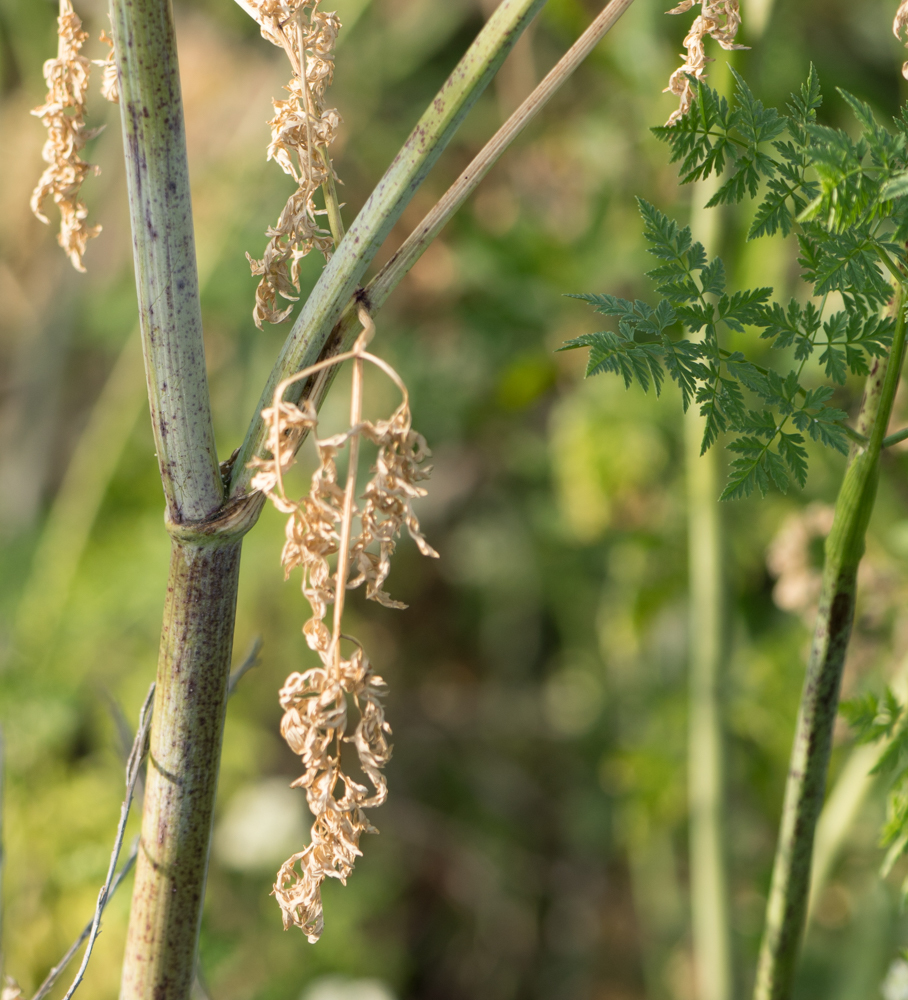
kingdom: Plantae
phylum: Tracheophyta
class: Magnoliopsida
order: Apiales
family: Apiaceae
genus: Conium
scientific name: Conium maculatum
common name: Hemlock
